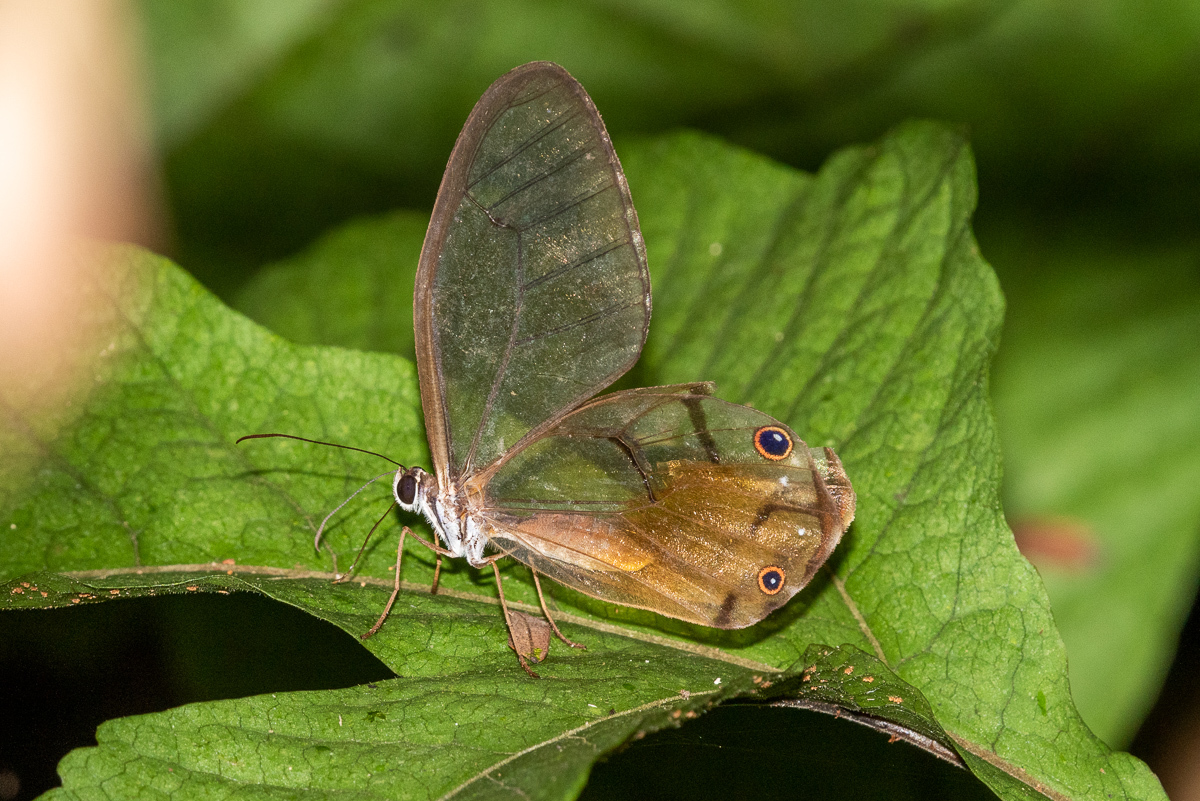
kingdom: Animalia
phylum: Arthropoda
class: Insecta
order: Lepidoptera
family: Nymphalidae
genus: Haetera
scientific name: Haetera piera
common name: Amber phantom
